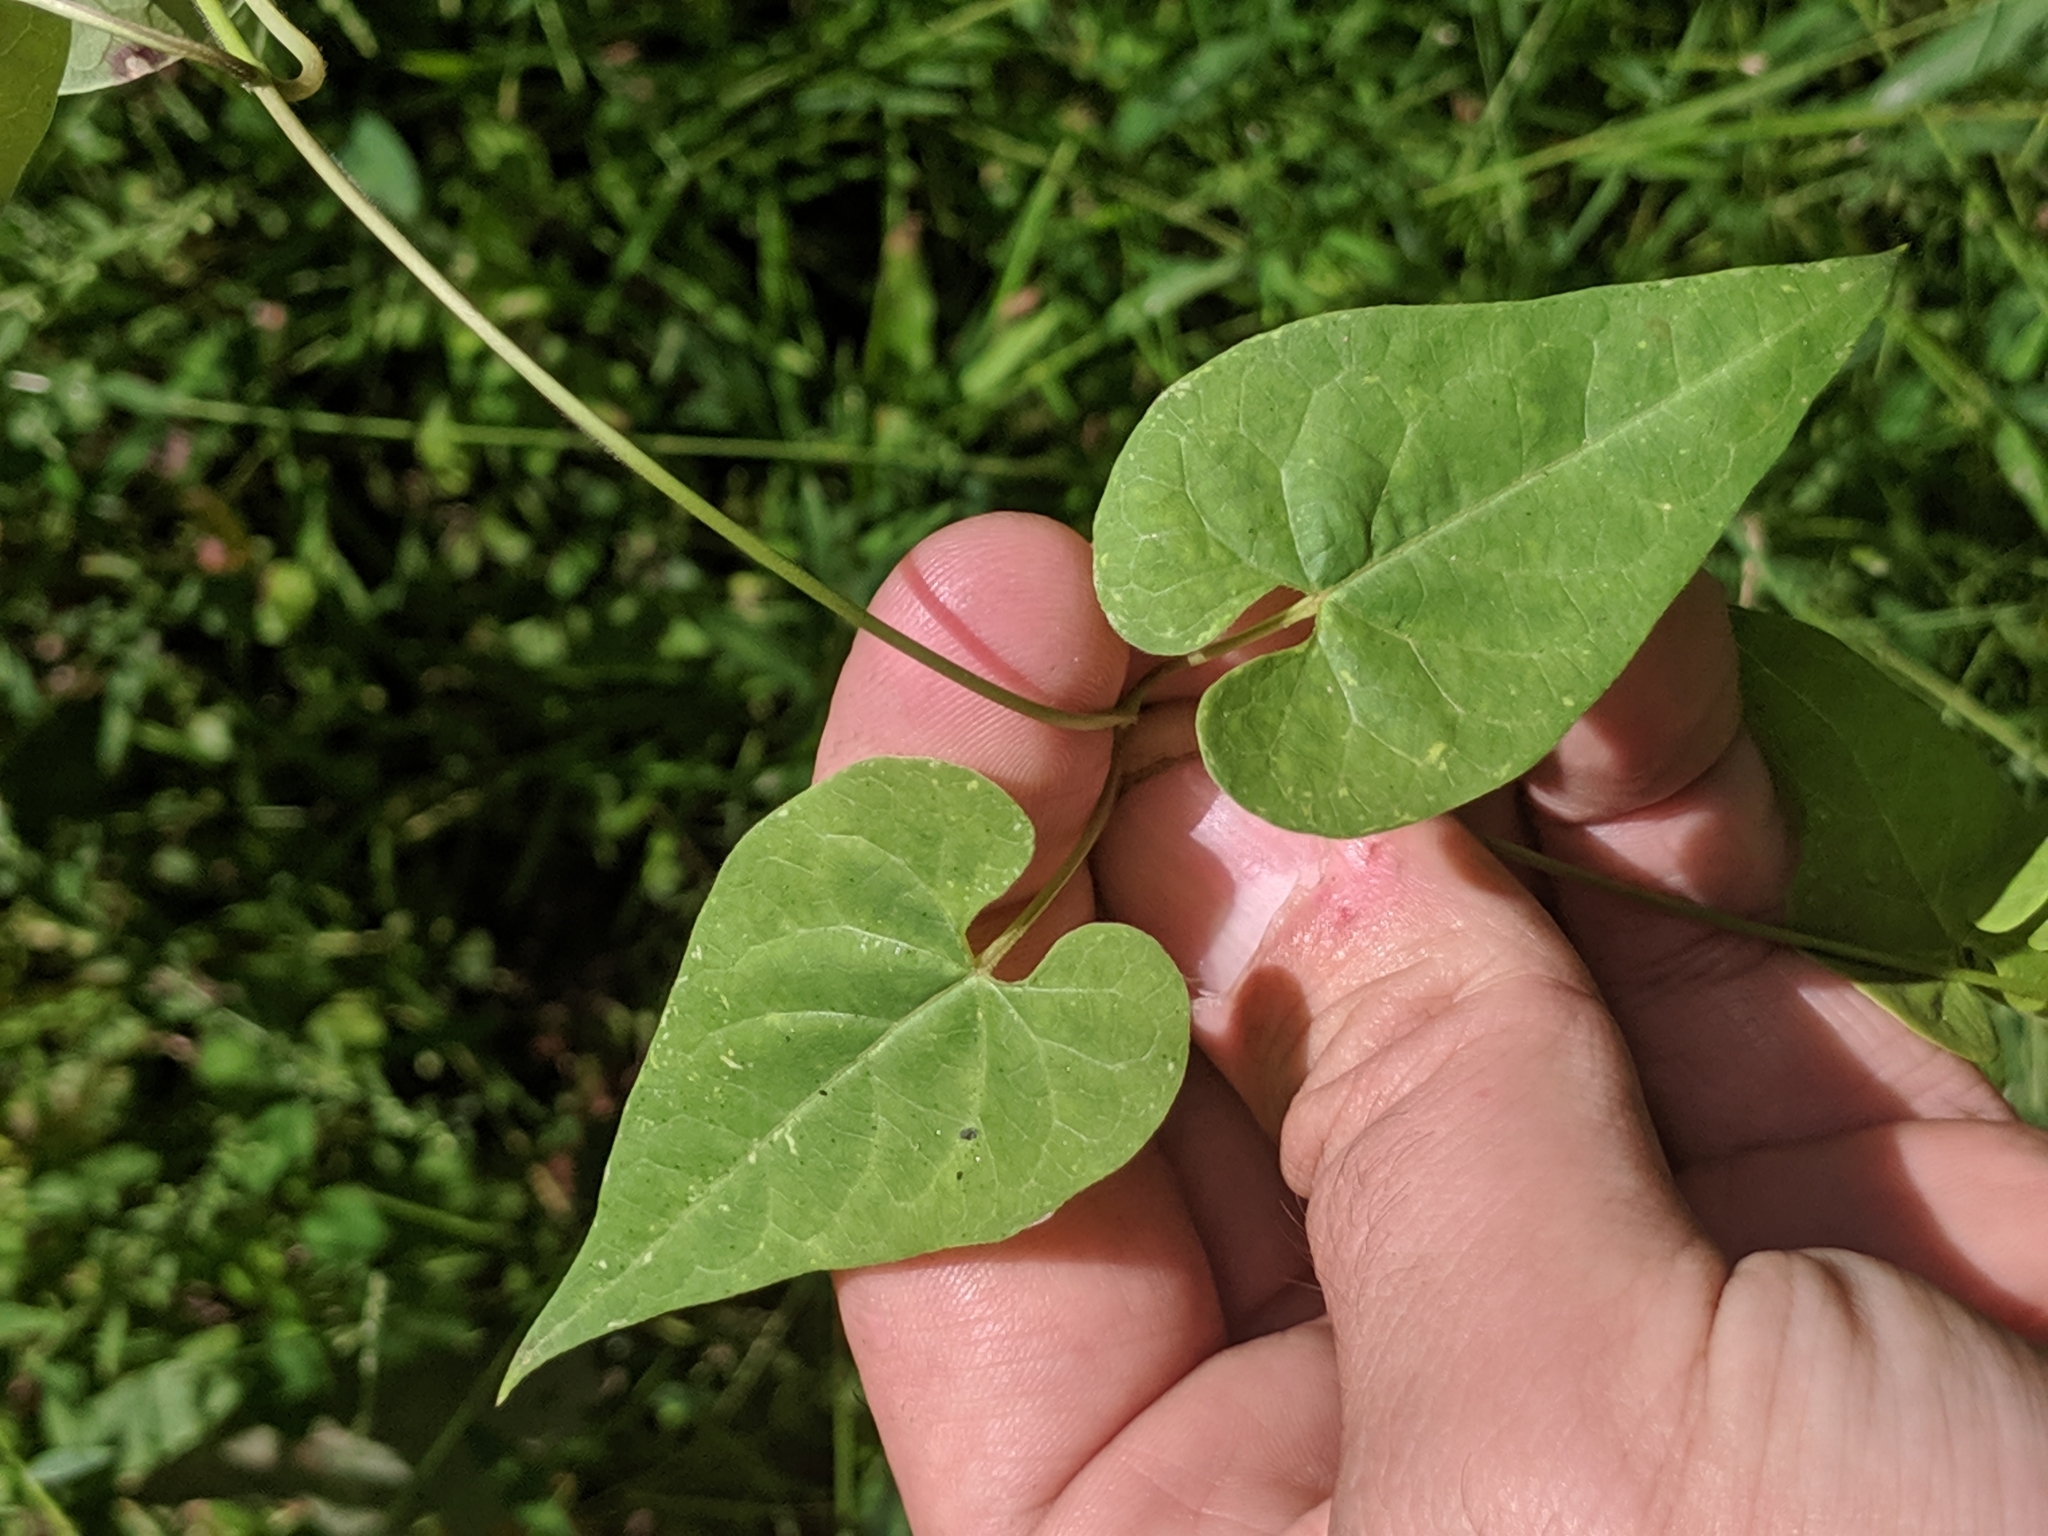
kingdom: Plantae
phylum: Tracheophyta
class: Magnoliopsida
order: Gentianales
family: Apocynaceae
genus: Cynanchum
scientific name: Cynanchum laeve
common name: Sandvine
